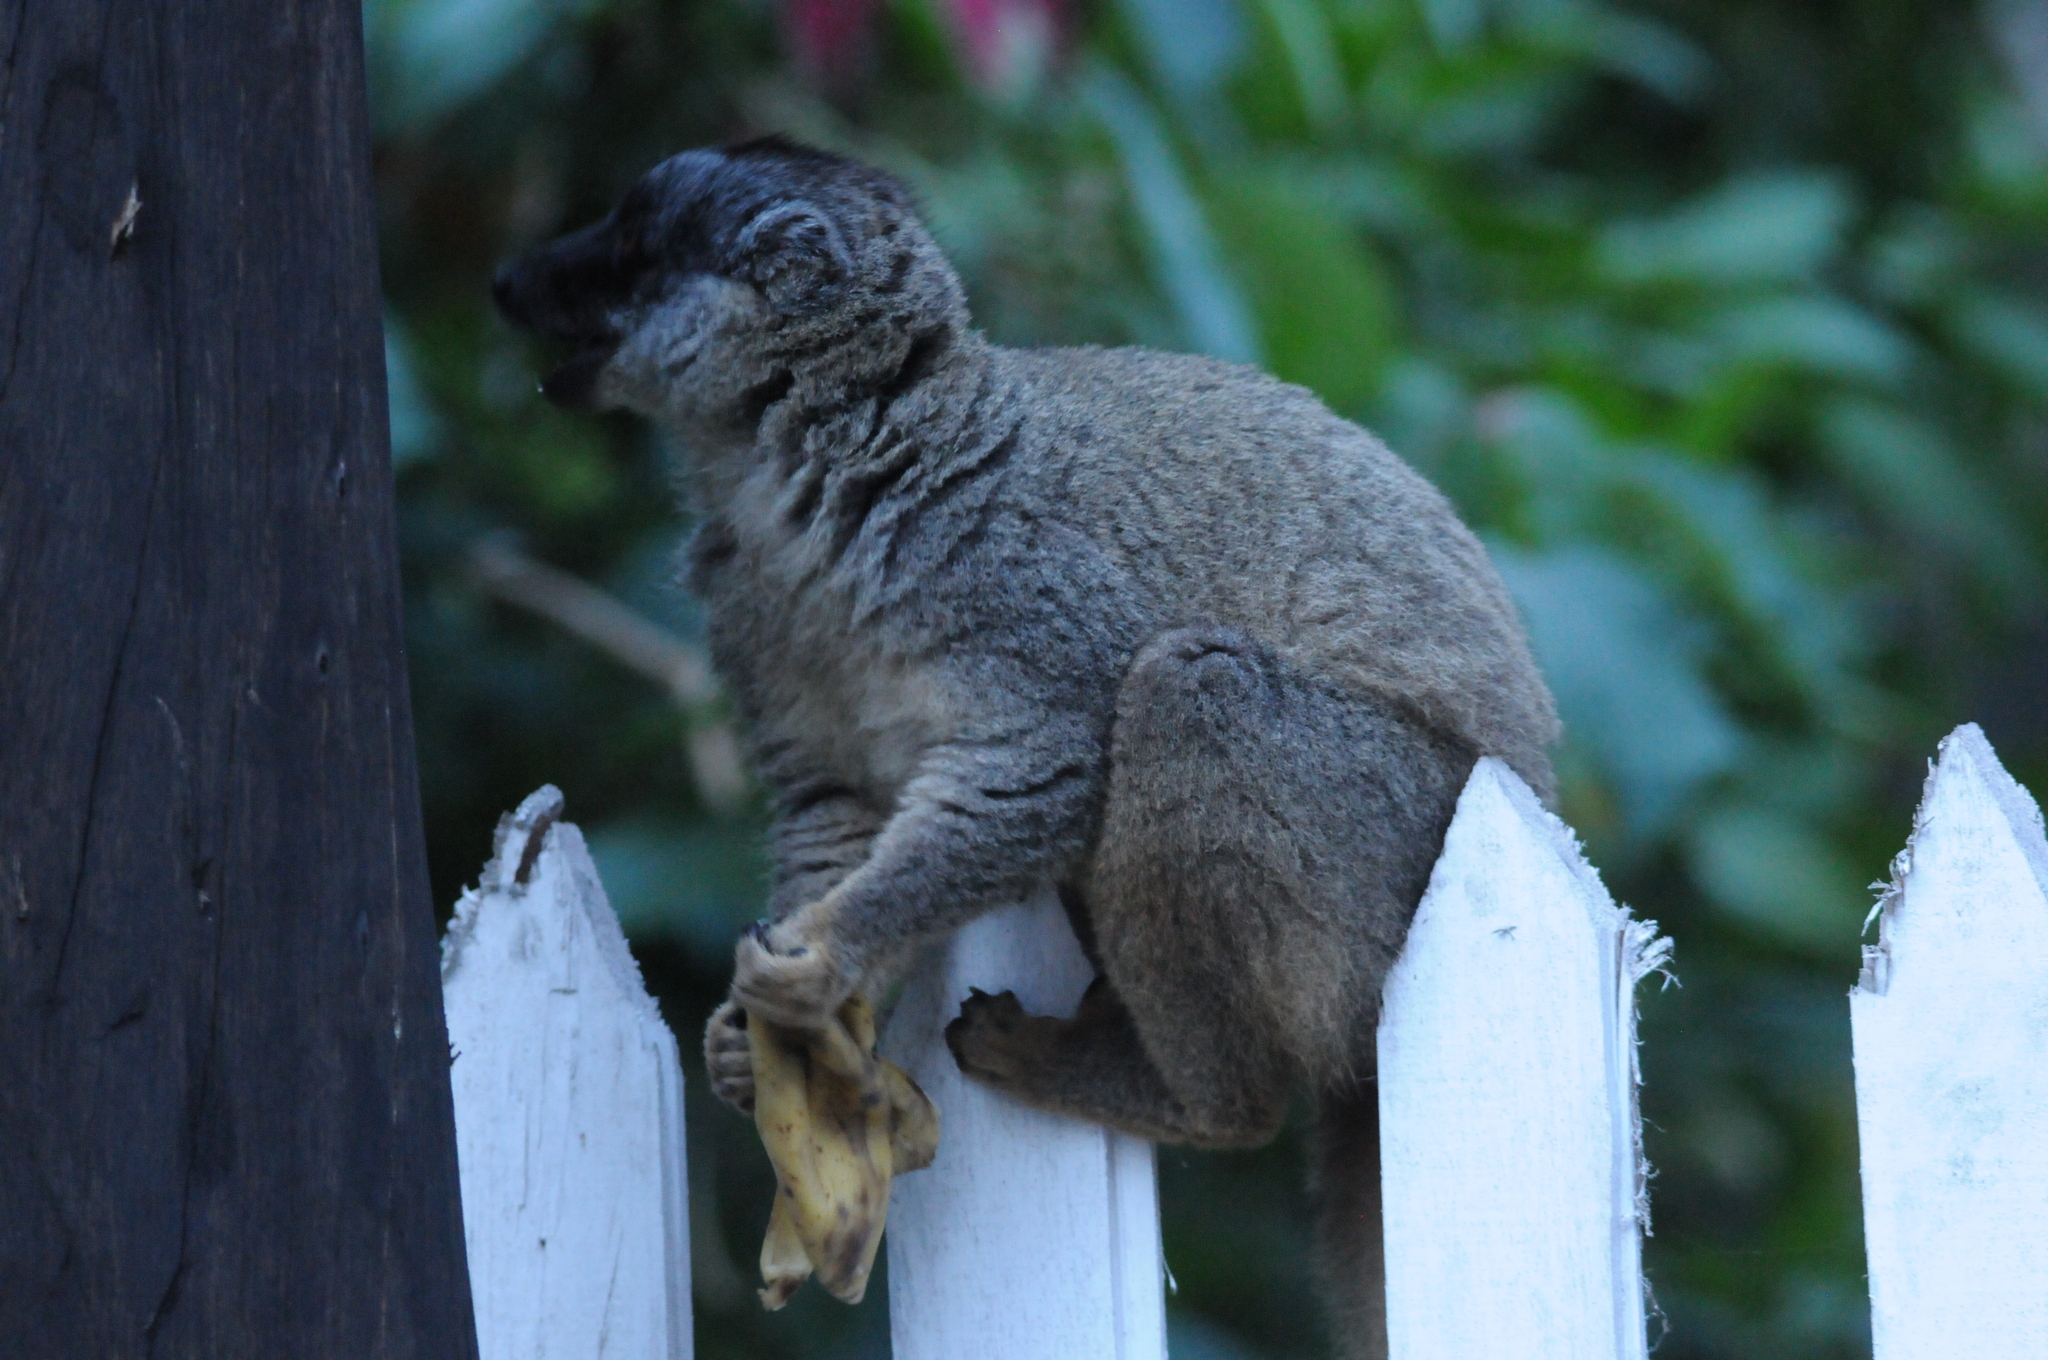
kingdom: Animalia
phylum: Chordata
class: Mammalia
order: Primates
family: Lemuridae
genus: Eulemur
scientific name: Eulemur fulvus
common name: Brown lemur
